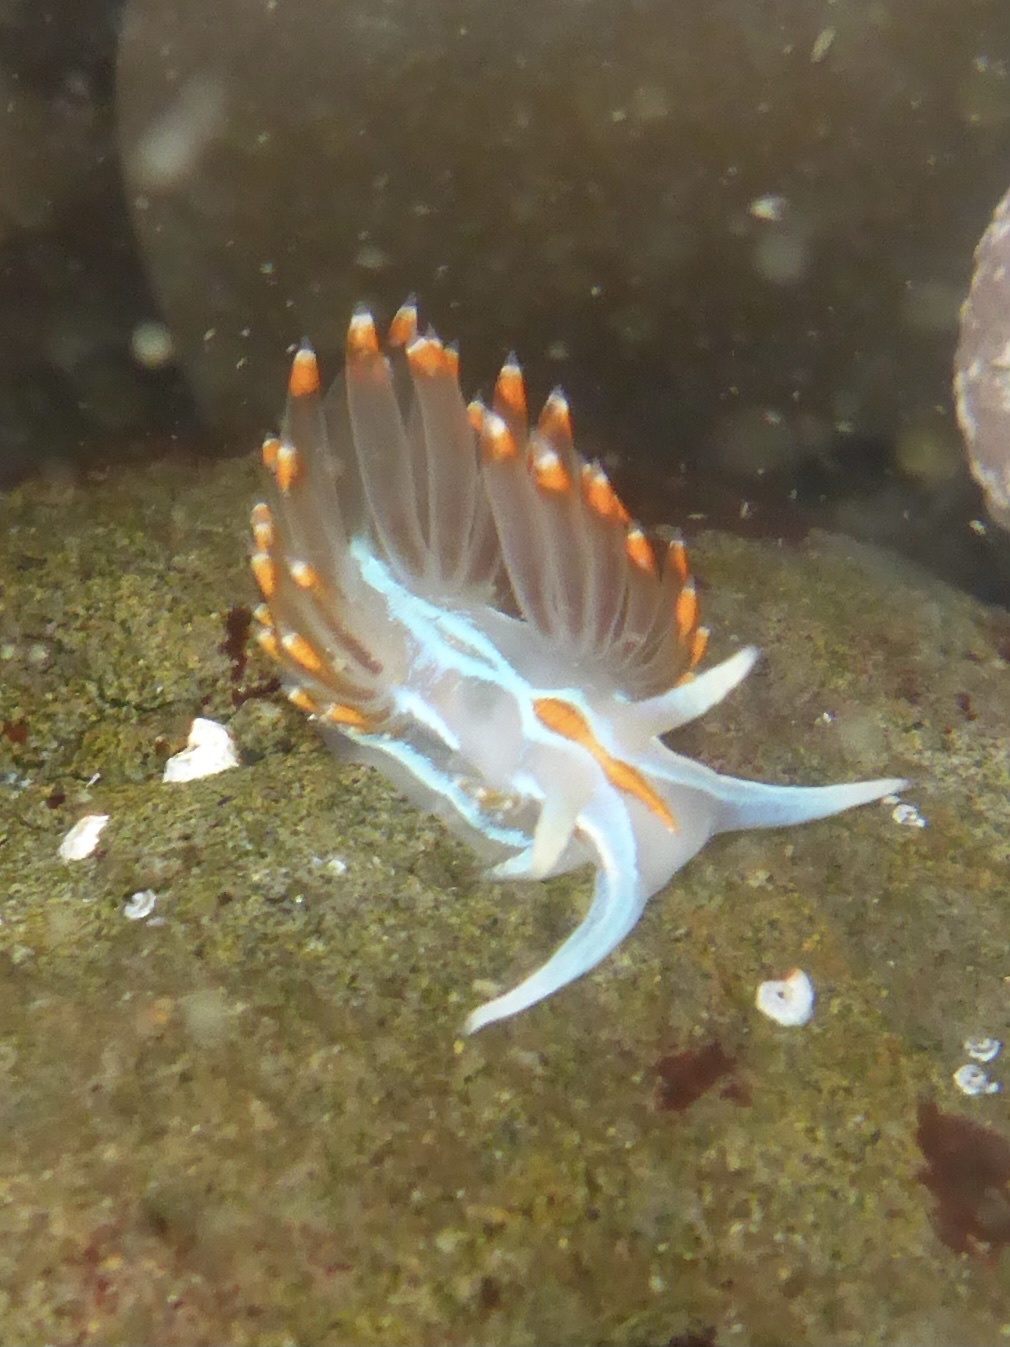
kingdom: Animalia
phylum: Mollusca
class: Gastropoda
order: Nudibranchia
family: Myrrhinidae
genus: Hermissenda
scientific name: Hermissenda opalescens
